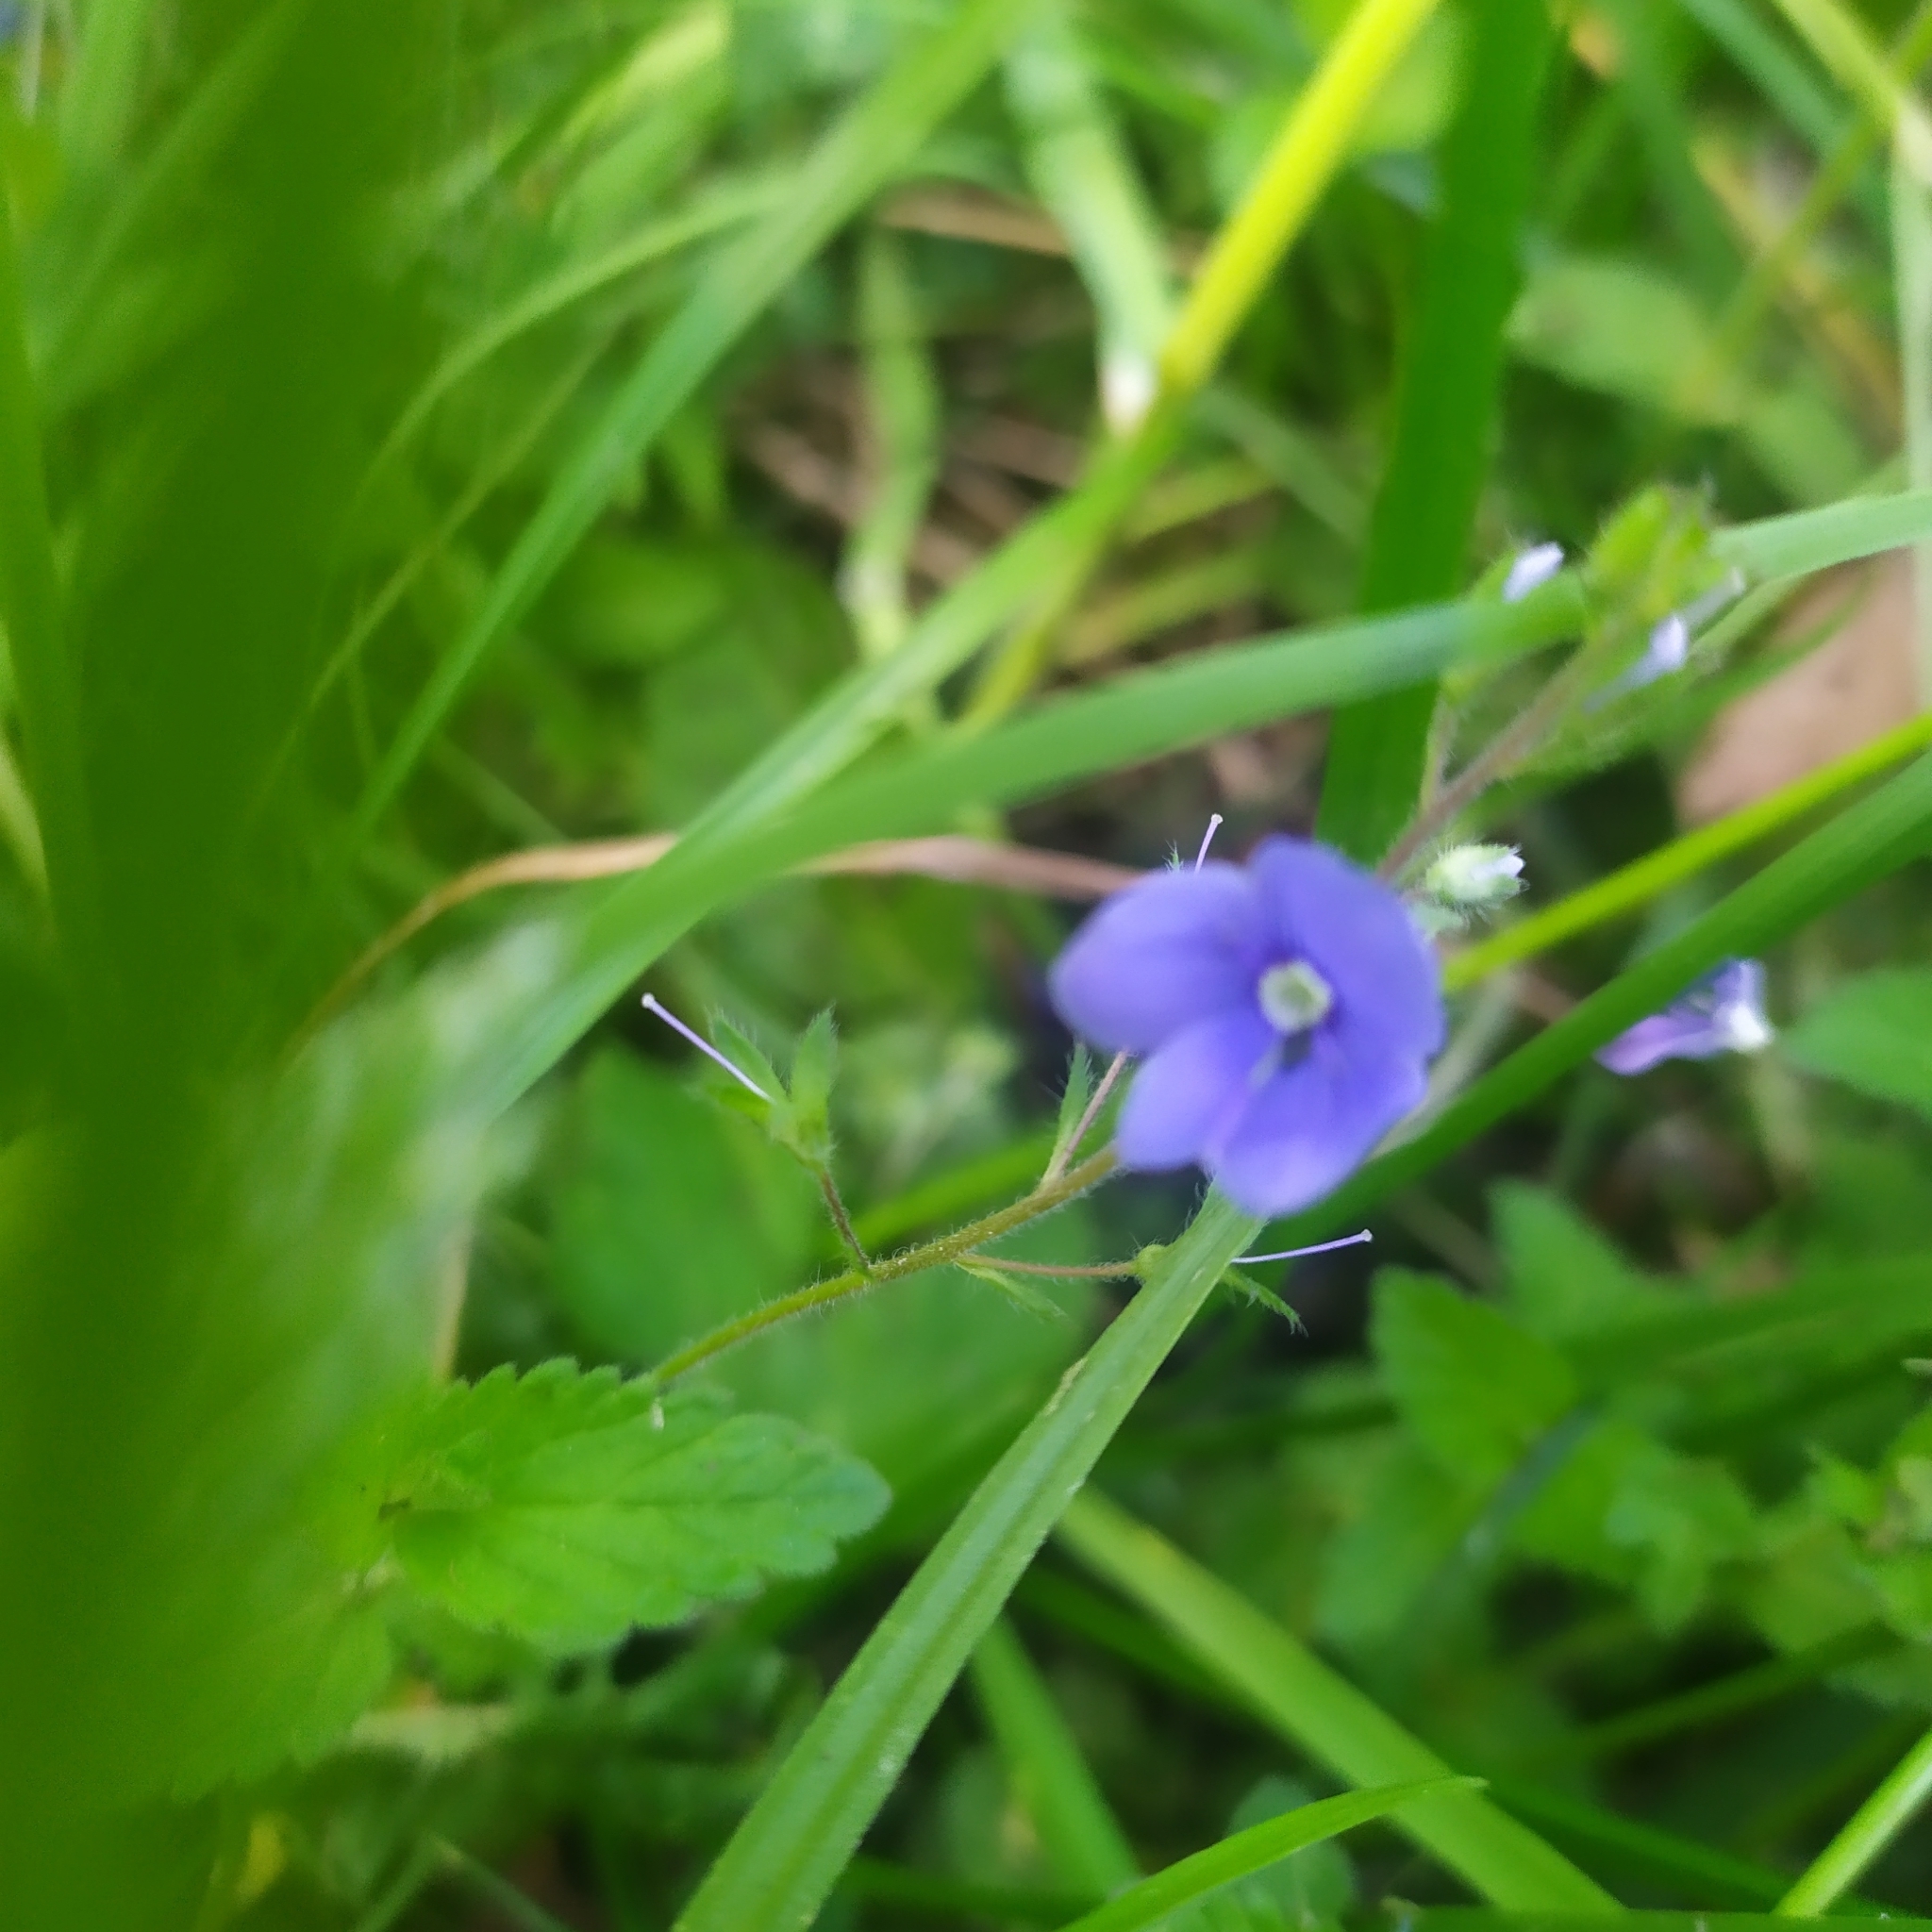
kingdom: Plantae
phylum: Tracheophyta
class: Magnoliopsida
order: Lamiales
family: Plantaginaceae
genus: Veronica
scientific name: Veronica chamaedrys
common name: Germander speedwell
